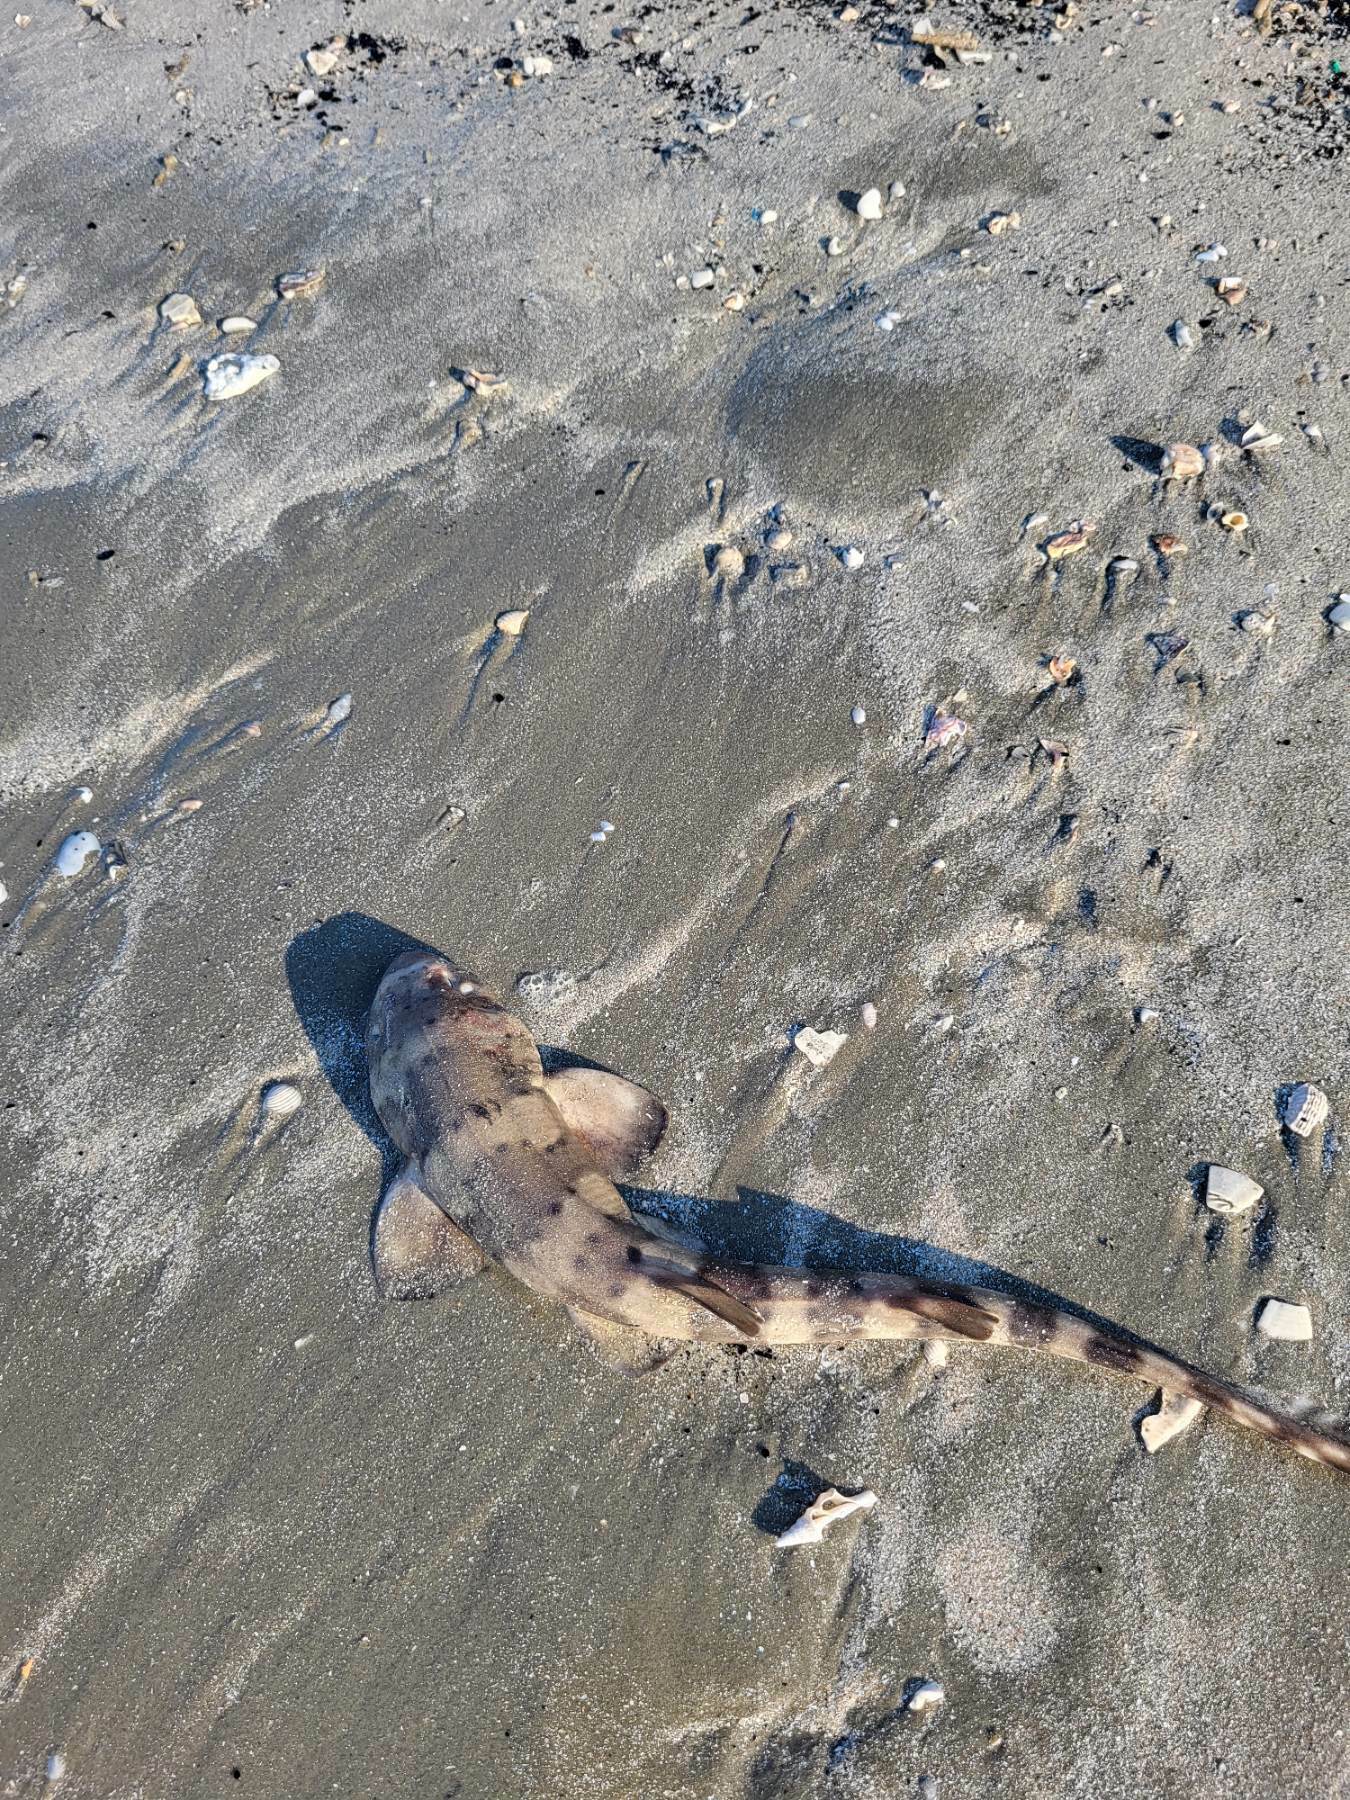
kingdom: Animalia
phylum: Chordata
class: Elasmobranchii
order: Orectolobiformes
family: Hemiscylliidae
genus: Chiloscyllium
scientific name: Chiloscyllium hasseltii
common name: Hasselt's bambooshark
